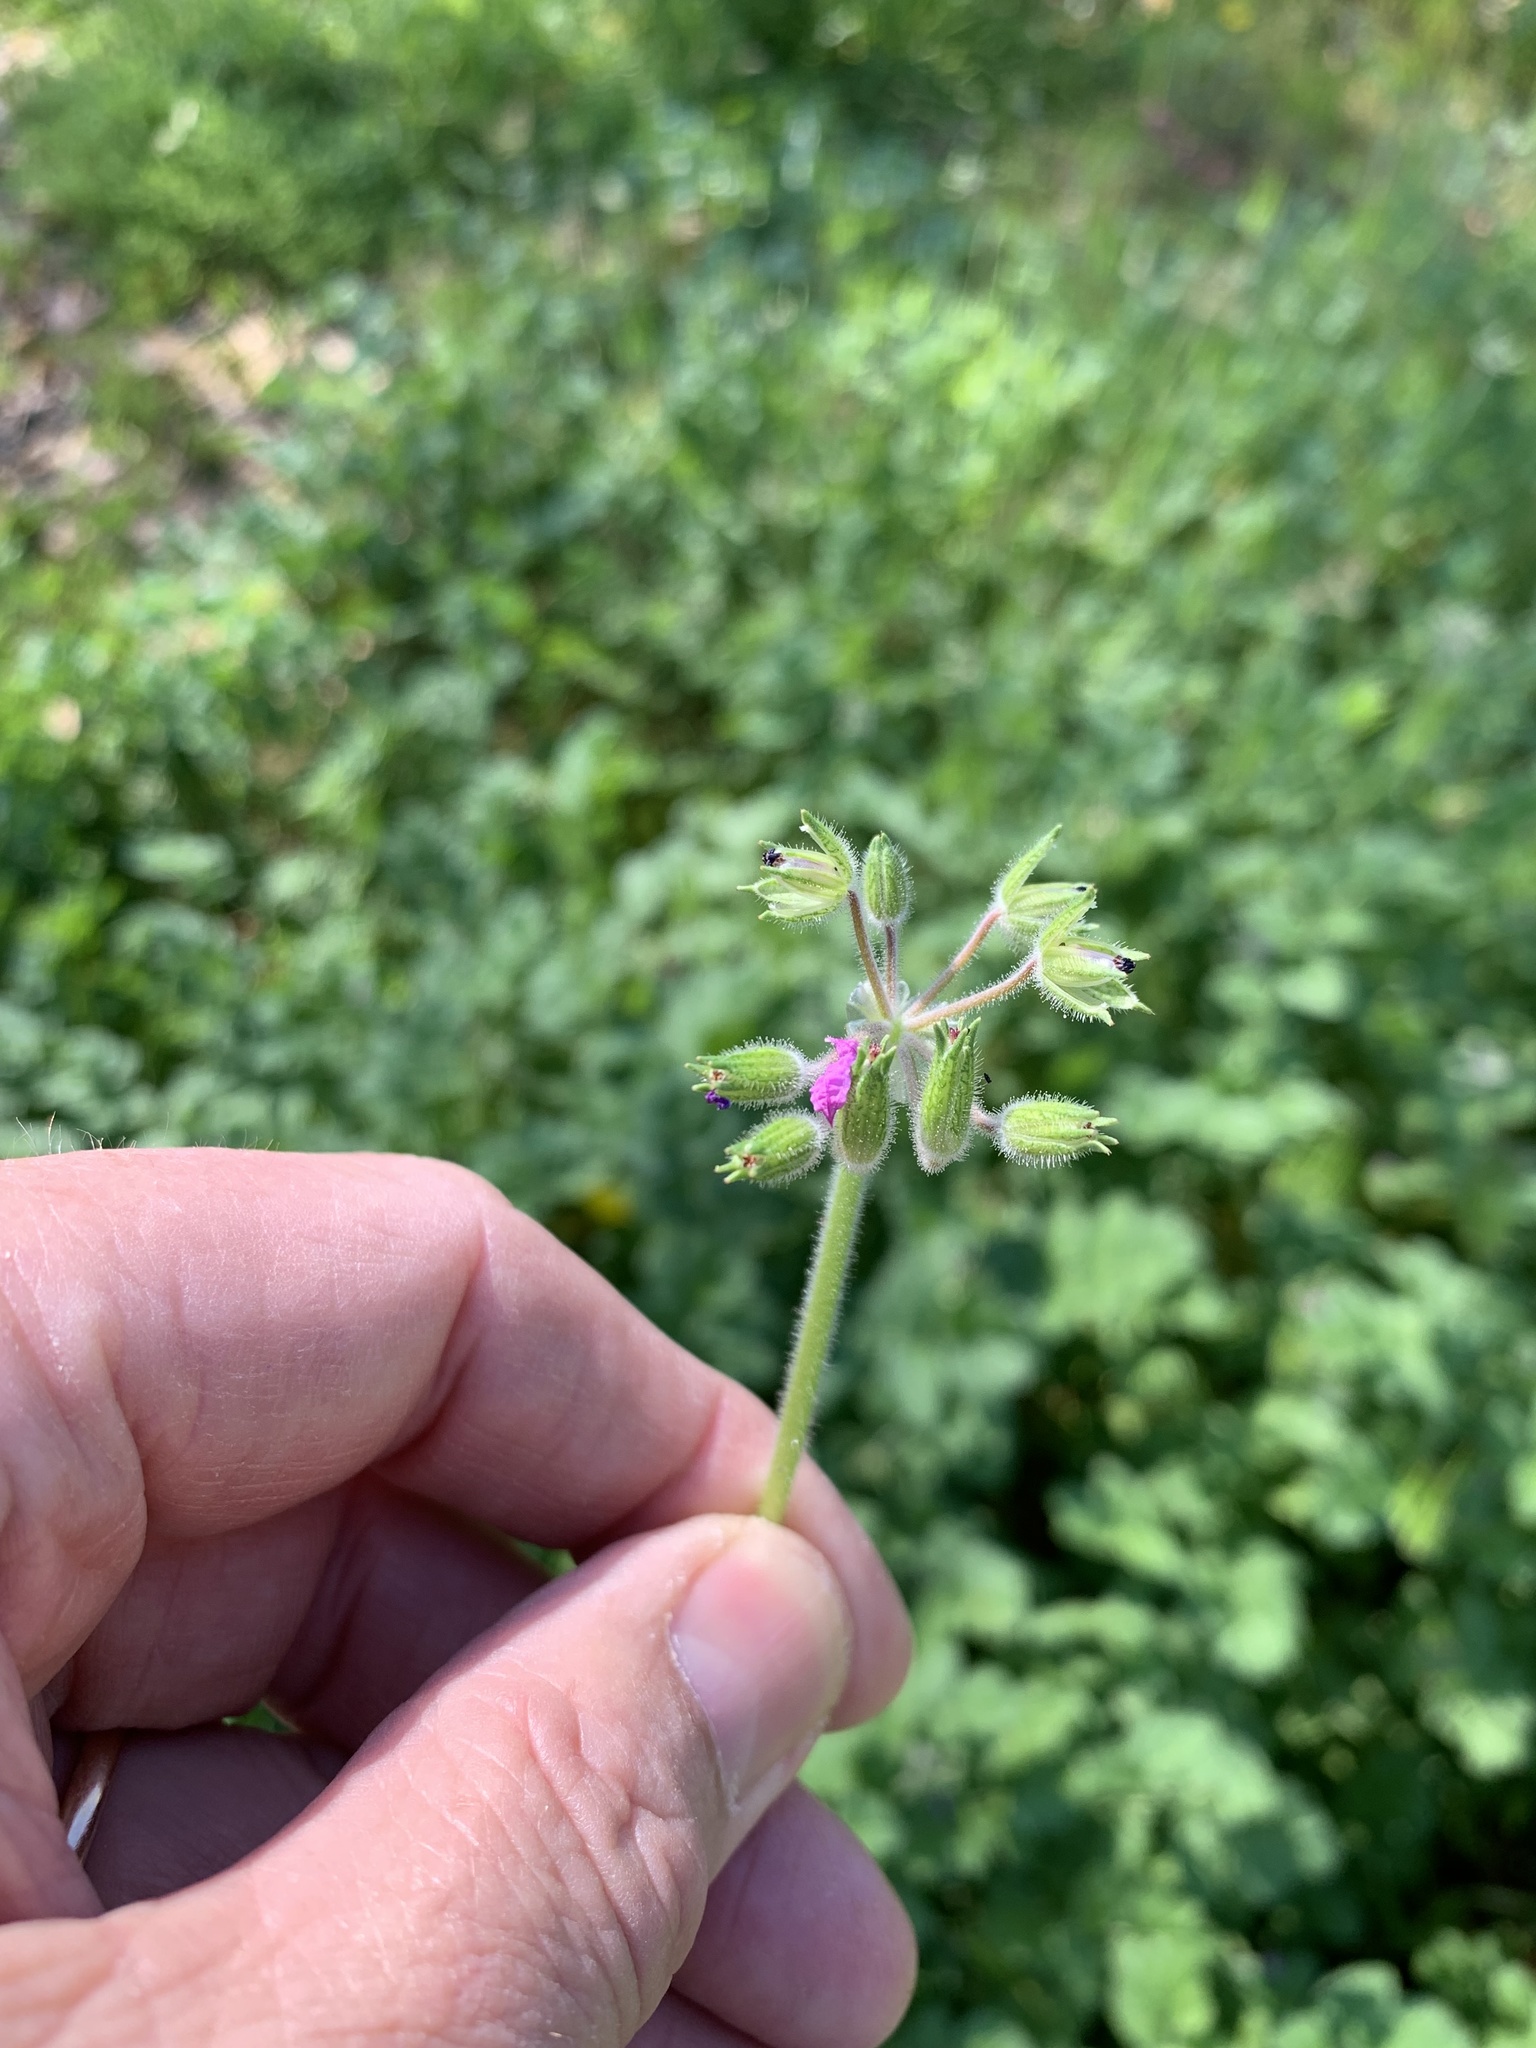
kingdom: Plantae
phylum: Tracheophyta
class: Magnoliopsida
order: Geraniales
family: Geraniaceae
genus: Erodium
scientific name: Erodium moschatum
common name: Musk stork's-bill
